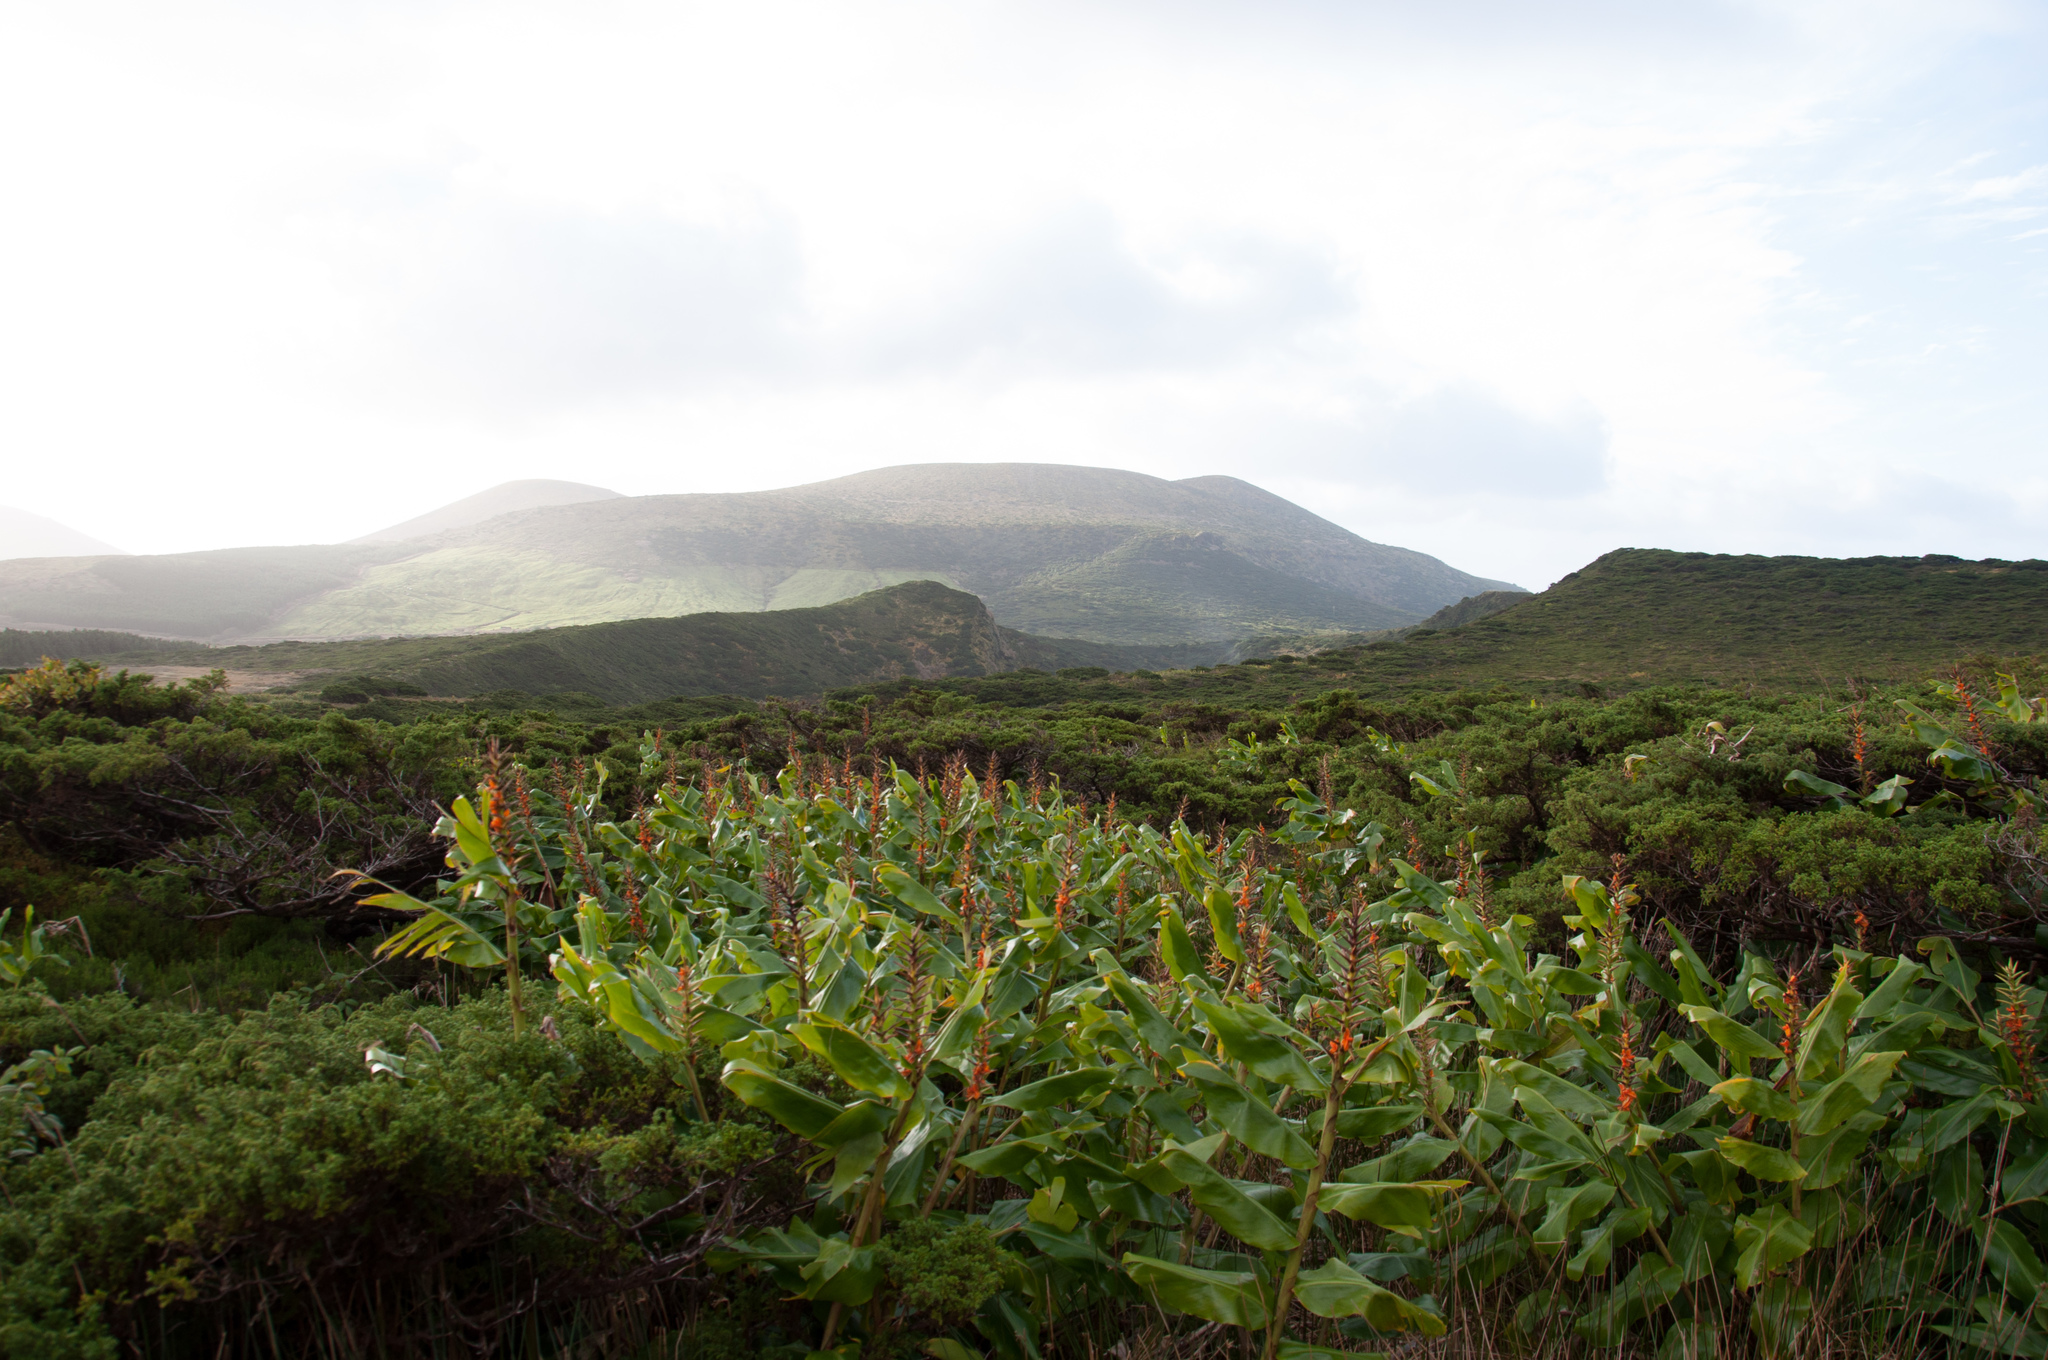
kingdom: Plantae
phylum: Tracheophyta
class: Liliopsida
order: Zingiberales
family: Zingiberaceae
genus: Hedychium
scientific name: Hedychium gardnerianum
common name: Himalayan ginger
